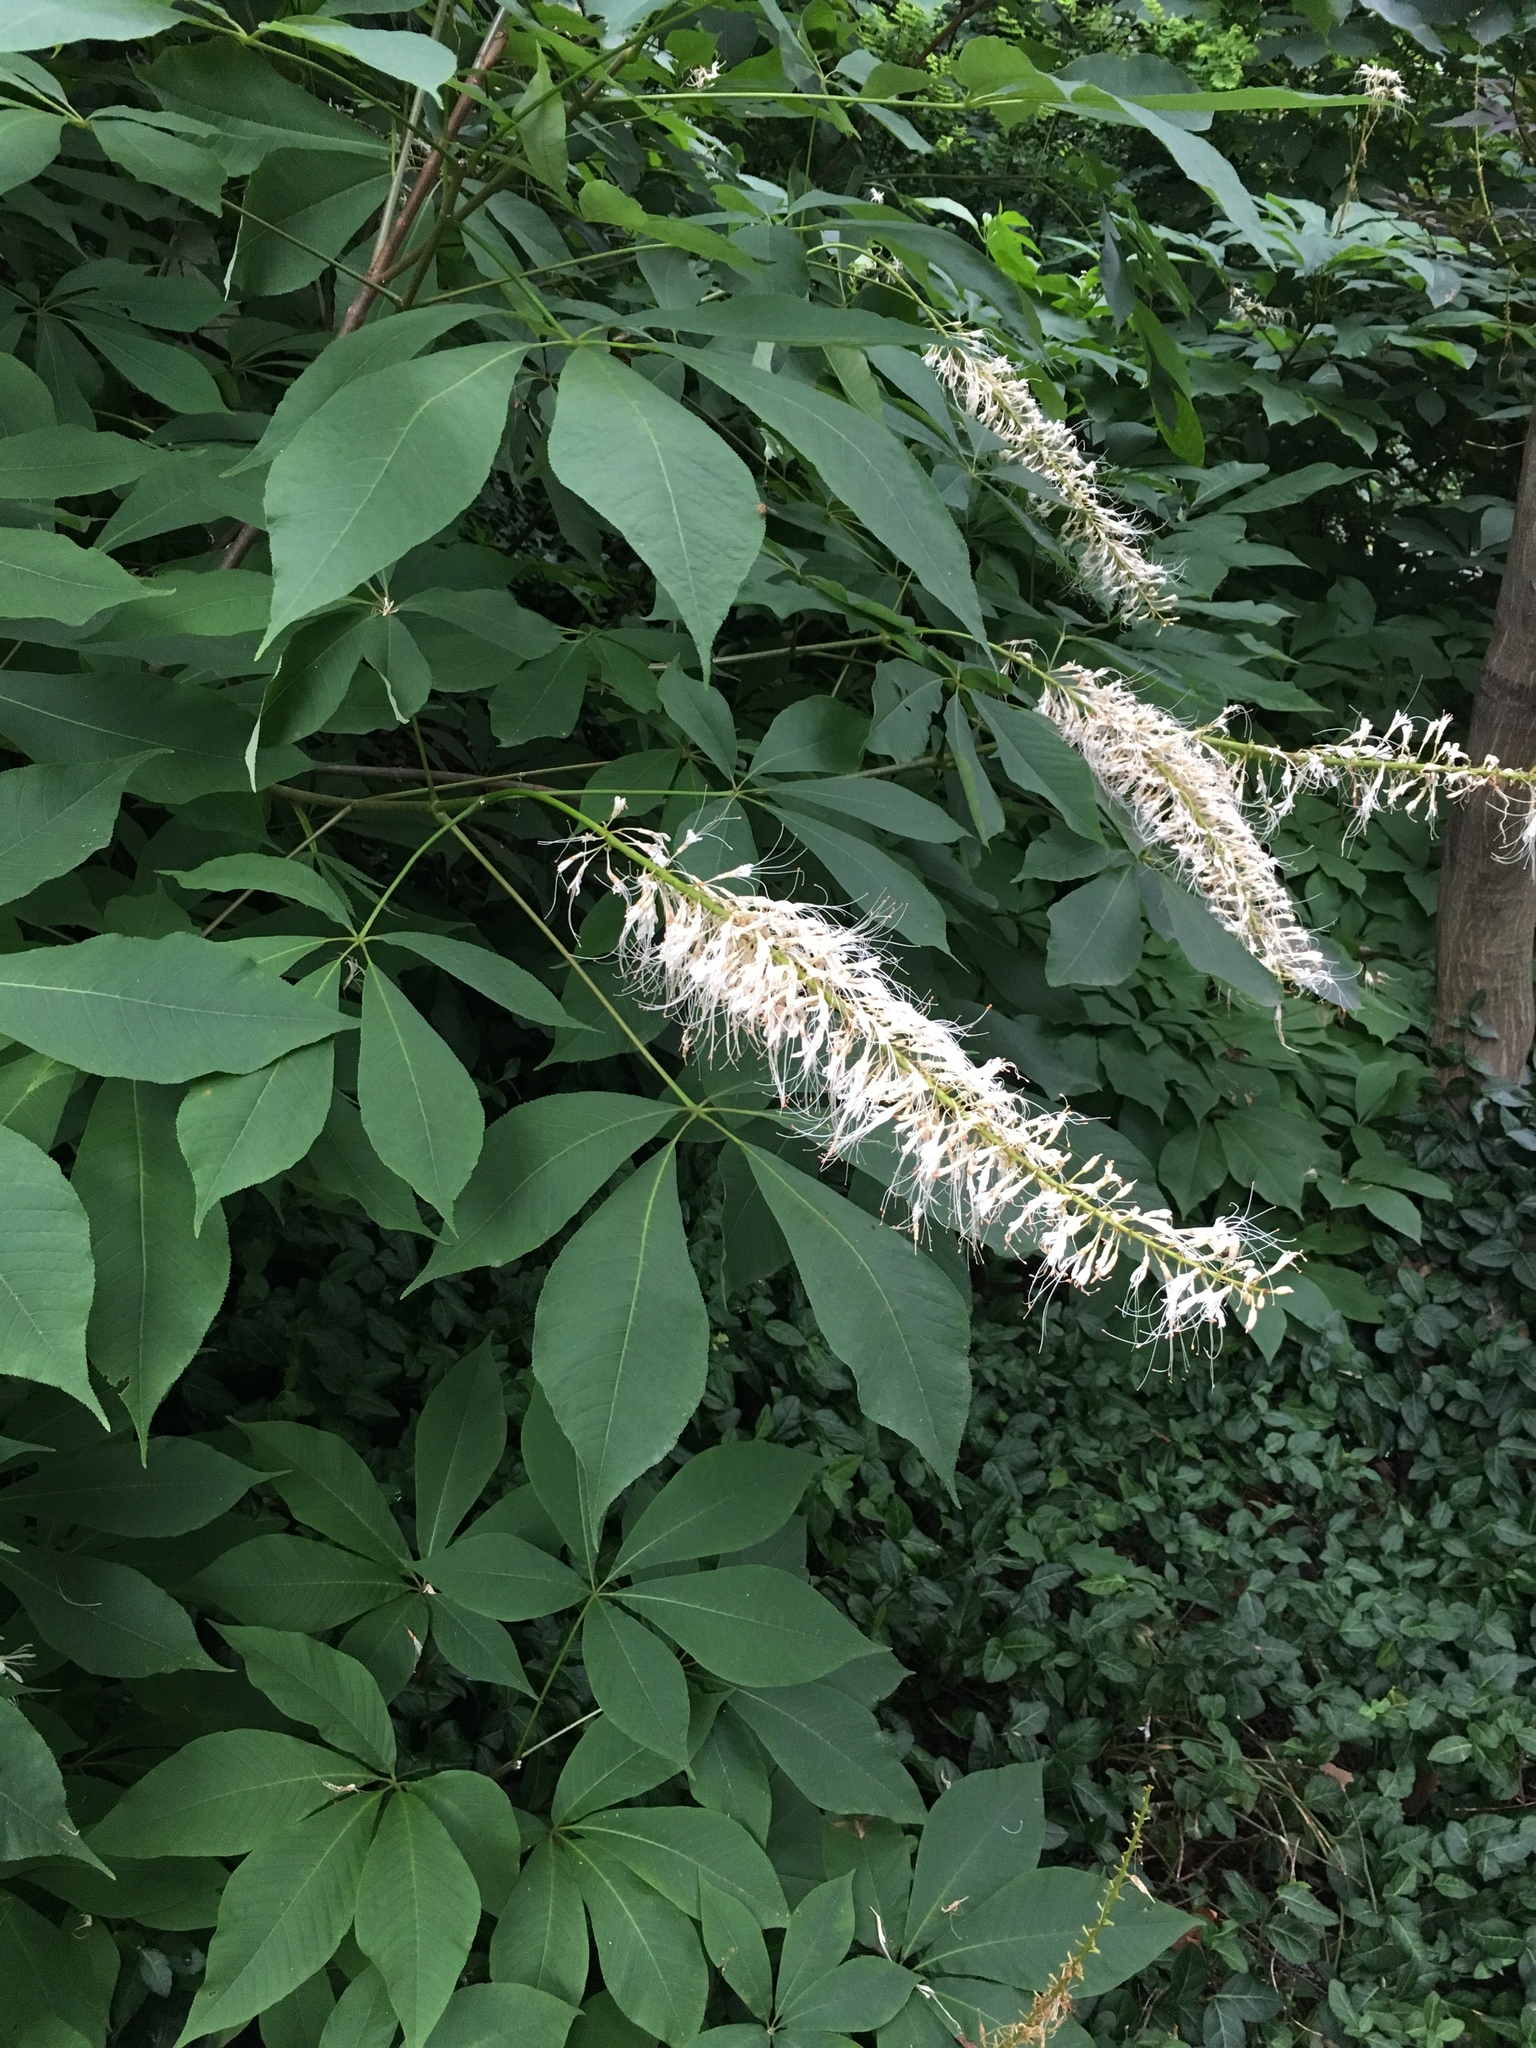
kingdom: Plantae
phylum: Tracheophyta
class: Magnoliopsida
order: Sapindales
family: Sapindaceae
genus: Aesculus
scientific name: Aesculus parviflora
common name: Bottlebrush buckeye
